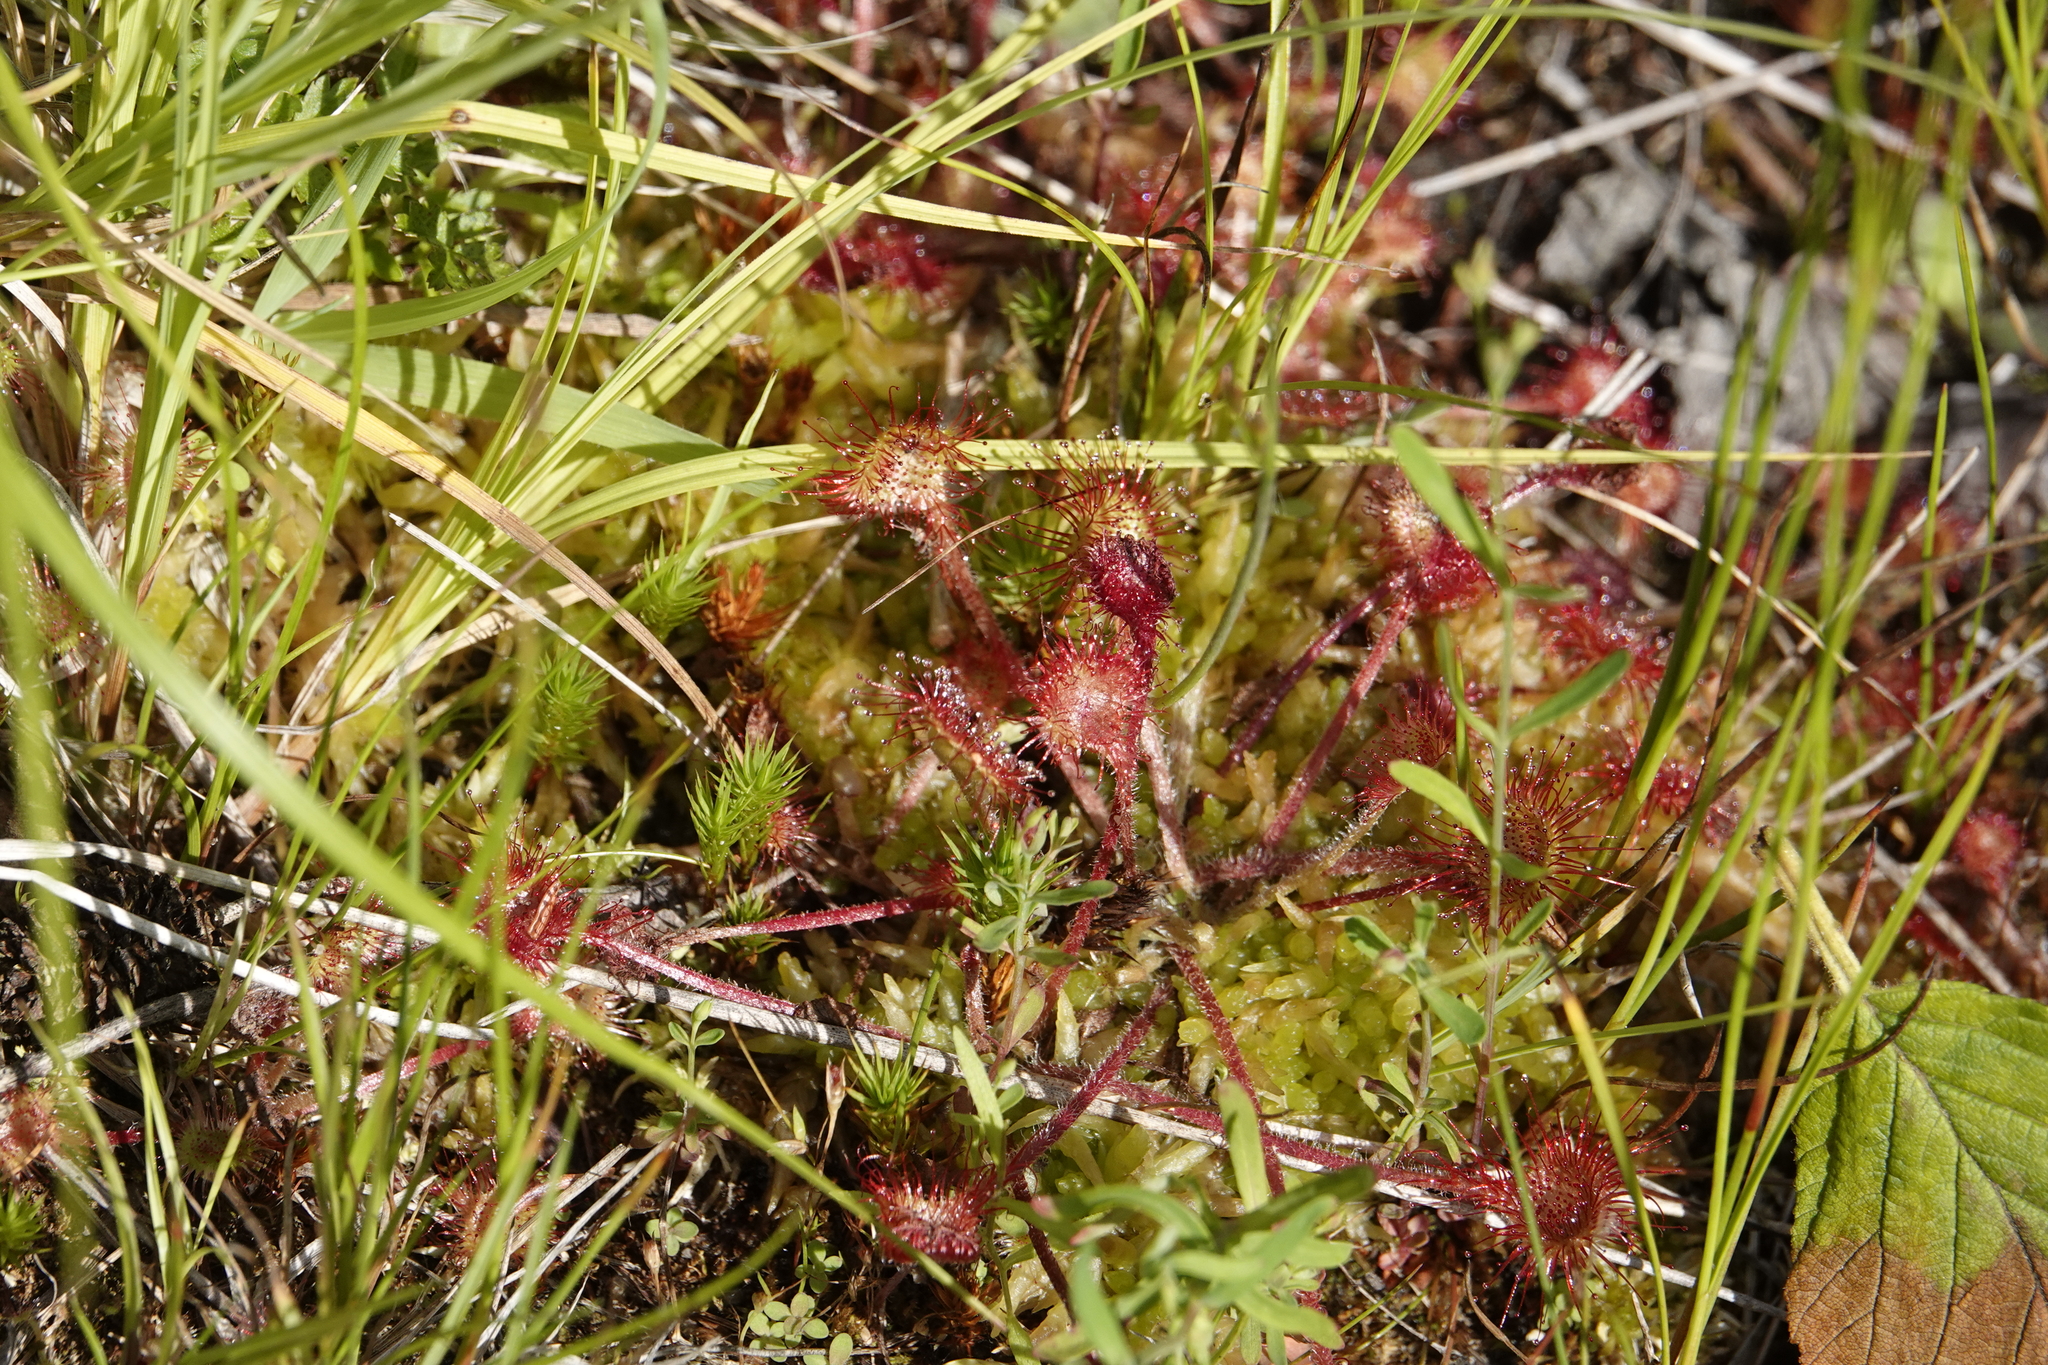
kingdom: Plantae
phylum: Tracheophyta
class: Magnoliopsida
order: Caryophyllales
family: Droseraceae
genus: Drosera
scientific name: Drosera rotundifolia
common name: Round-leaved sundew
